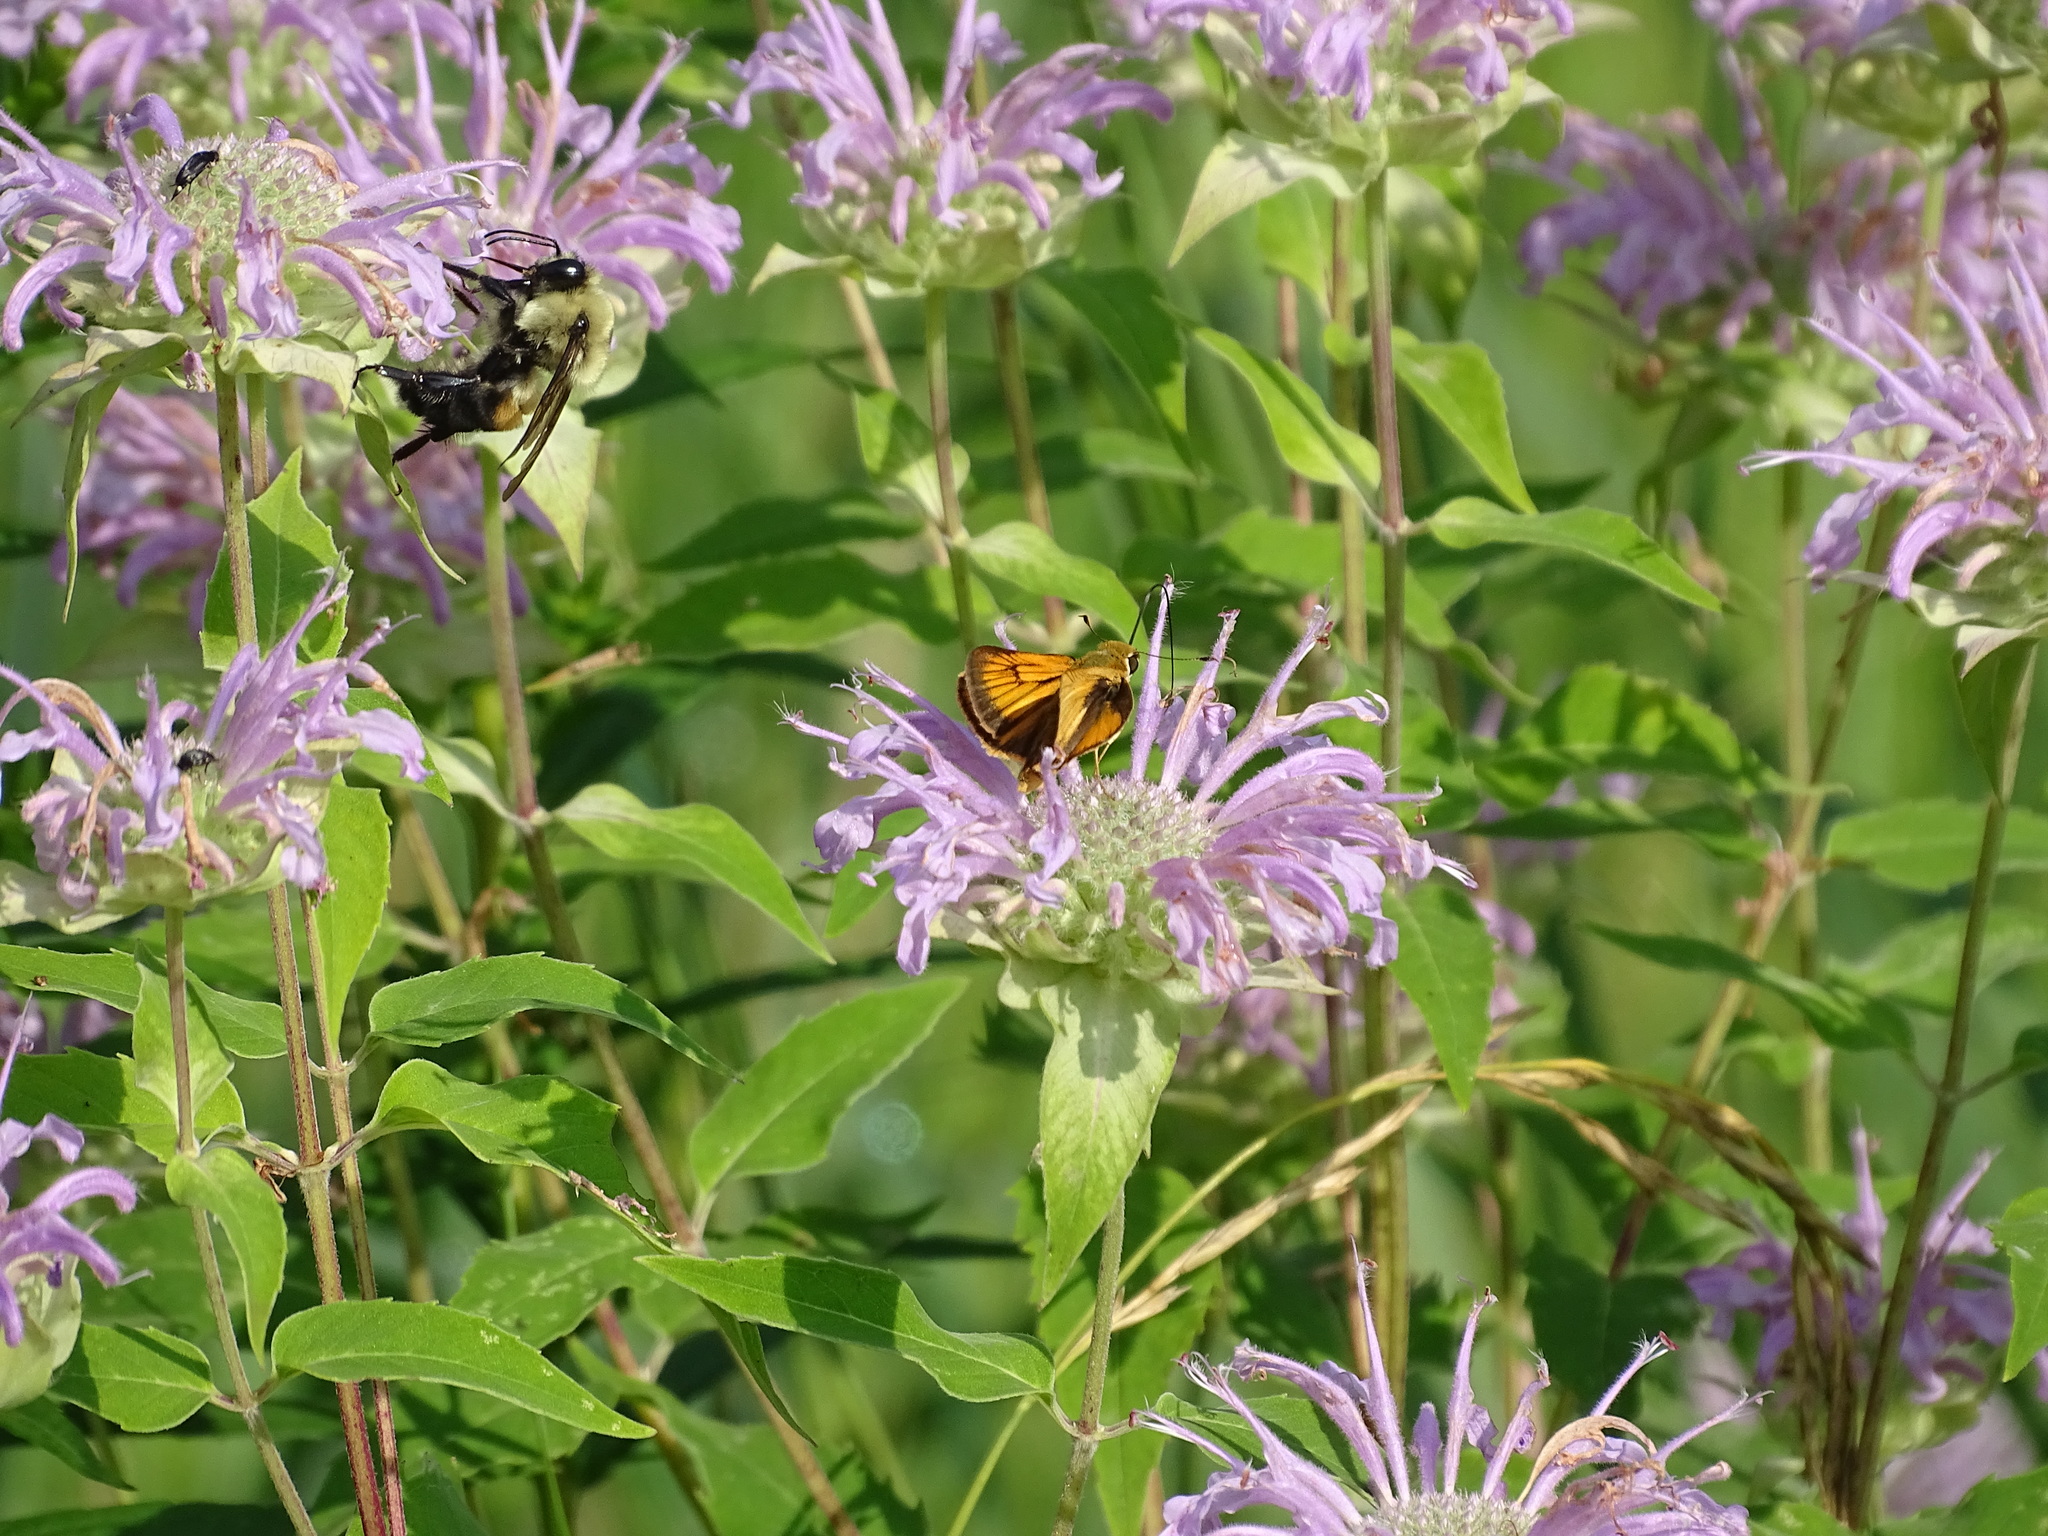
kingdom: Animalia
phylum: Arthropoda
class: Insecta
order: Lepidoptera
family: Hesperiidae
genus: Atrytone
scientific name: Atrytone delaware
